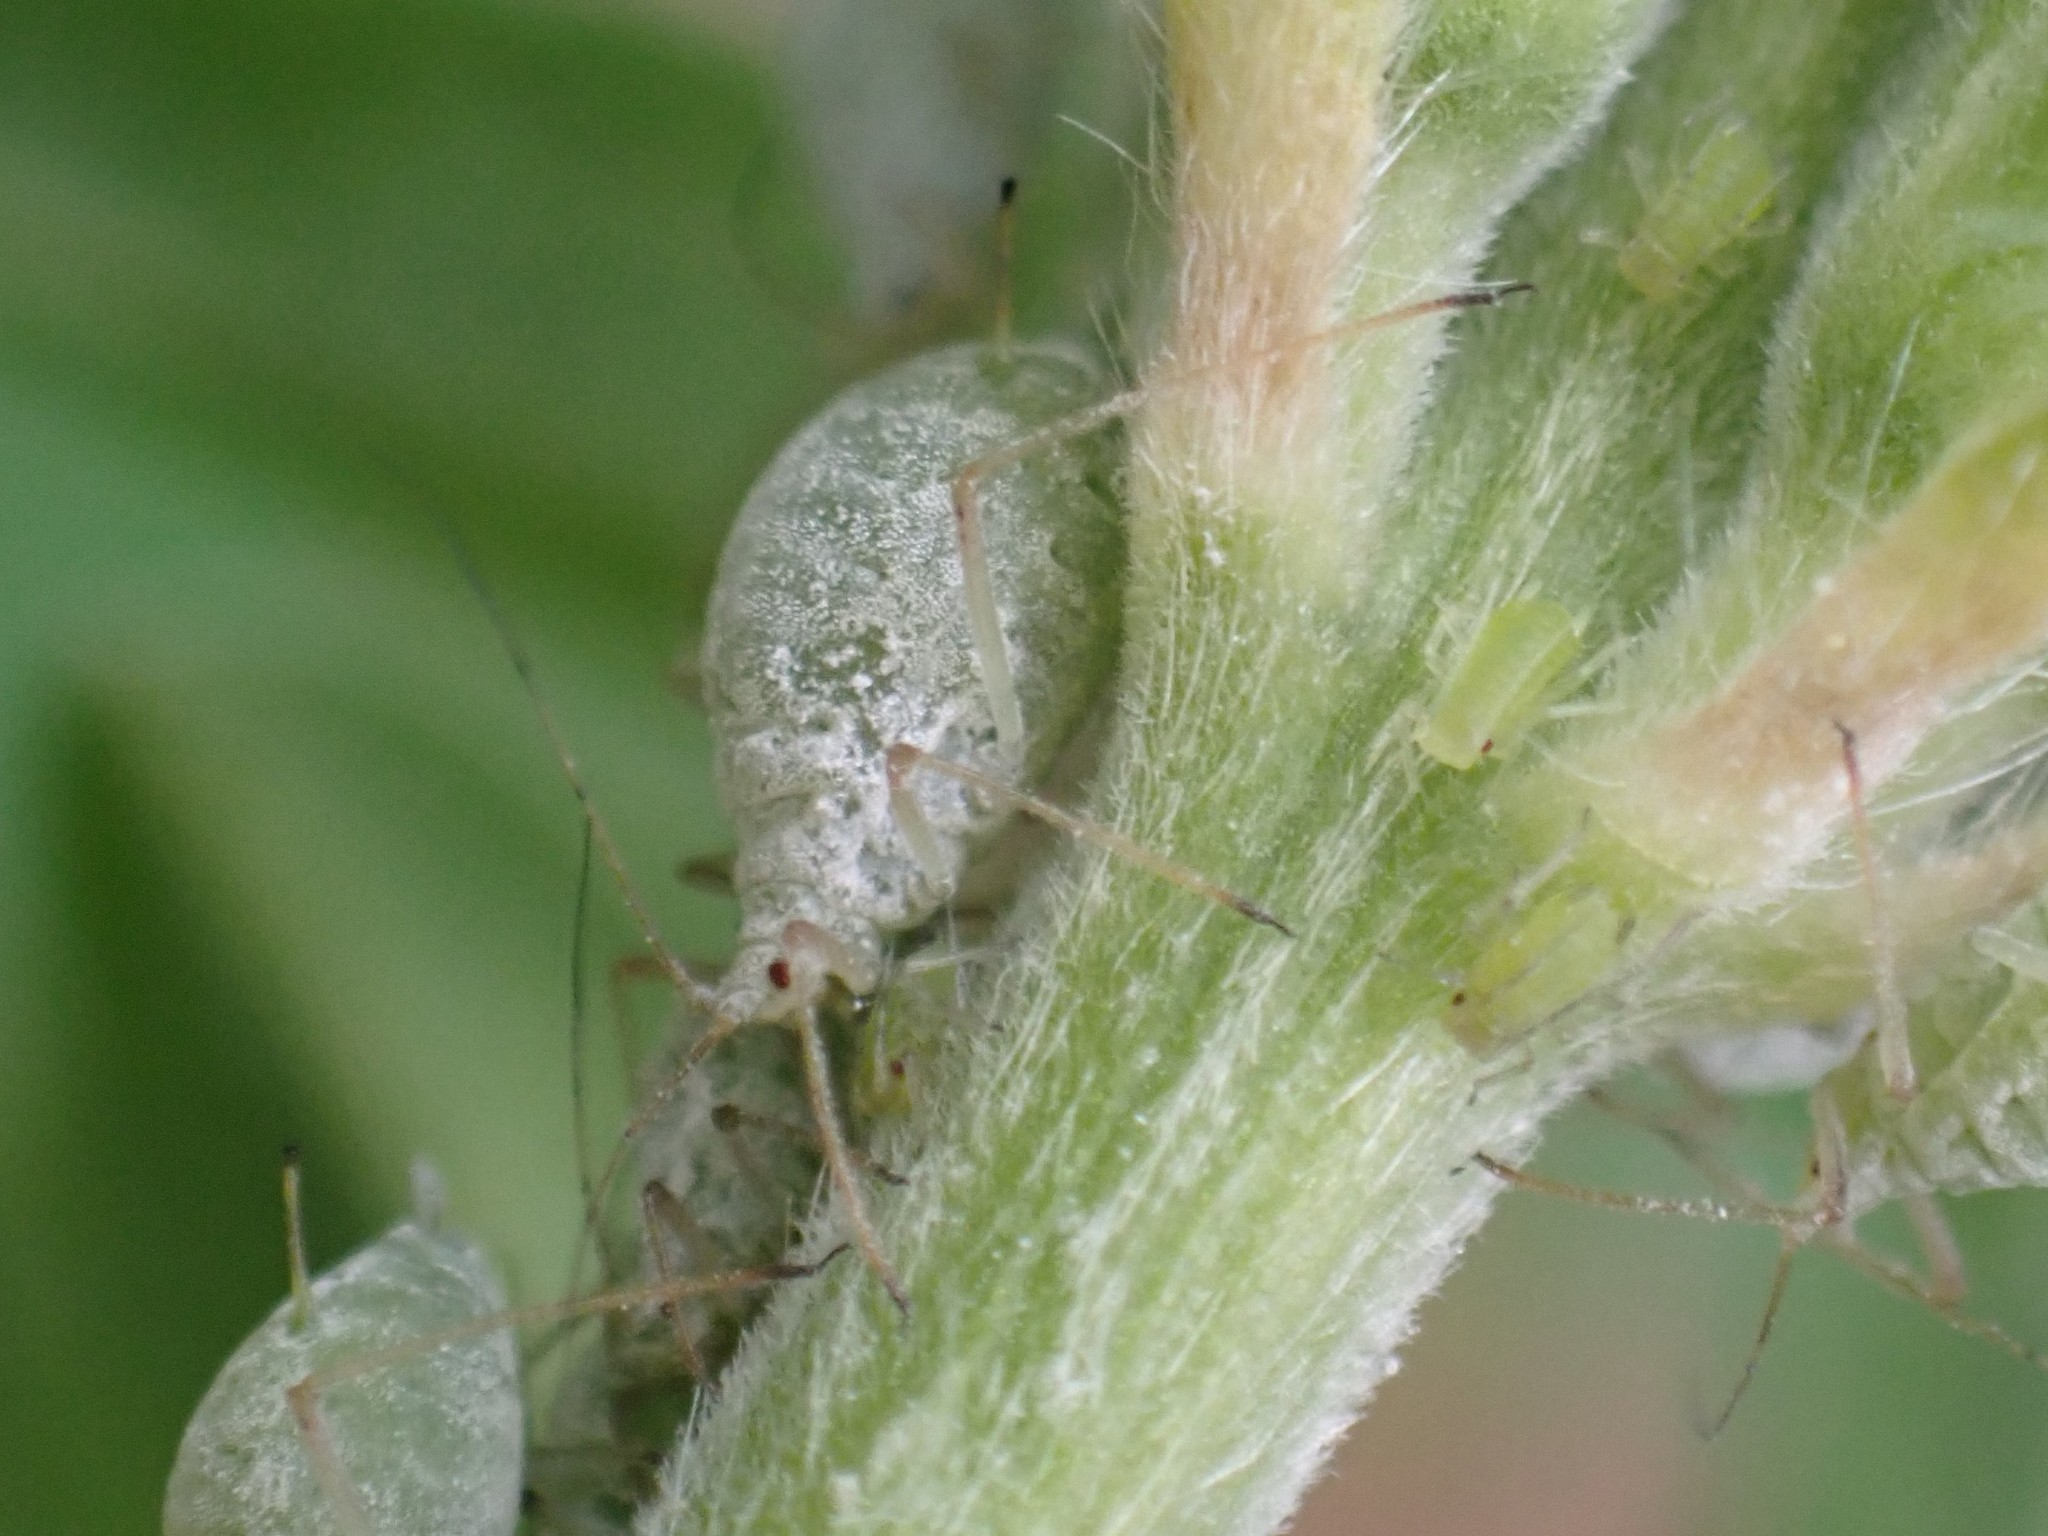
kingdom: Animalia
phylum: Arthropoda
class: Insecta
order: Hemiptera
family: Aphididae
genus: Macrosiphum
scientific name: Macrosiphum albifrons
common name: Lupine aphid
